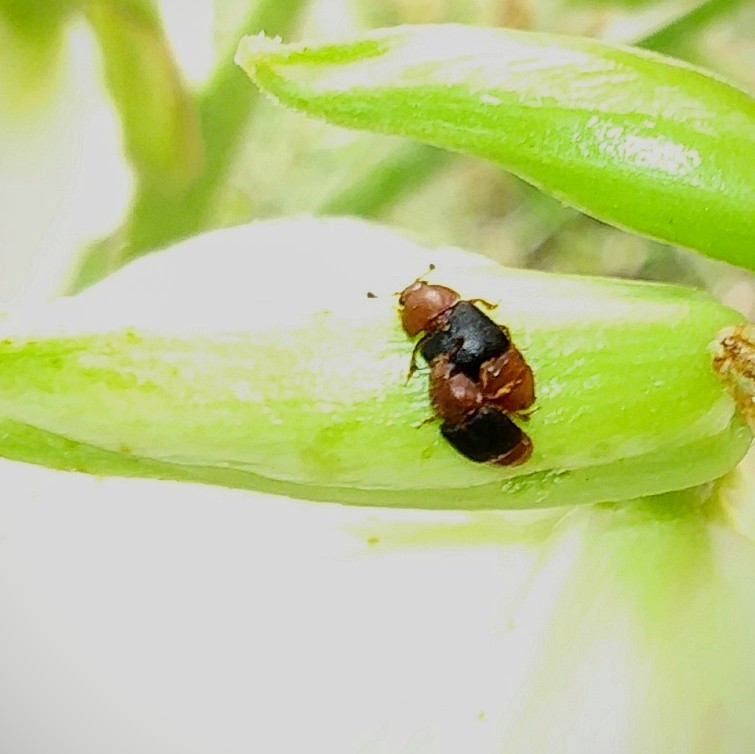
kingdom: Animalia
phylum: Arthropoda
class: Insecta
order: Coleoptera
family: Nitidulidae
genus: Carpophilus
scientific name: Carpophilus
